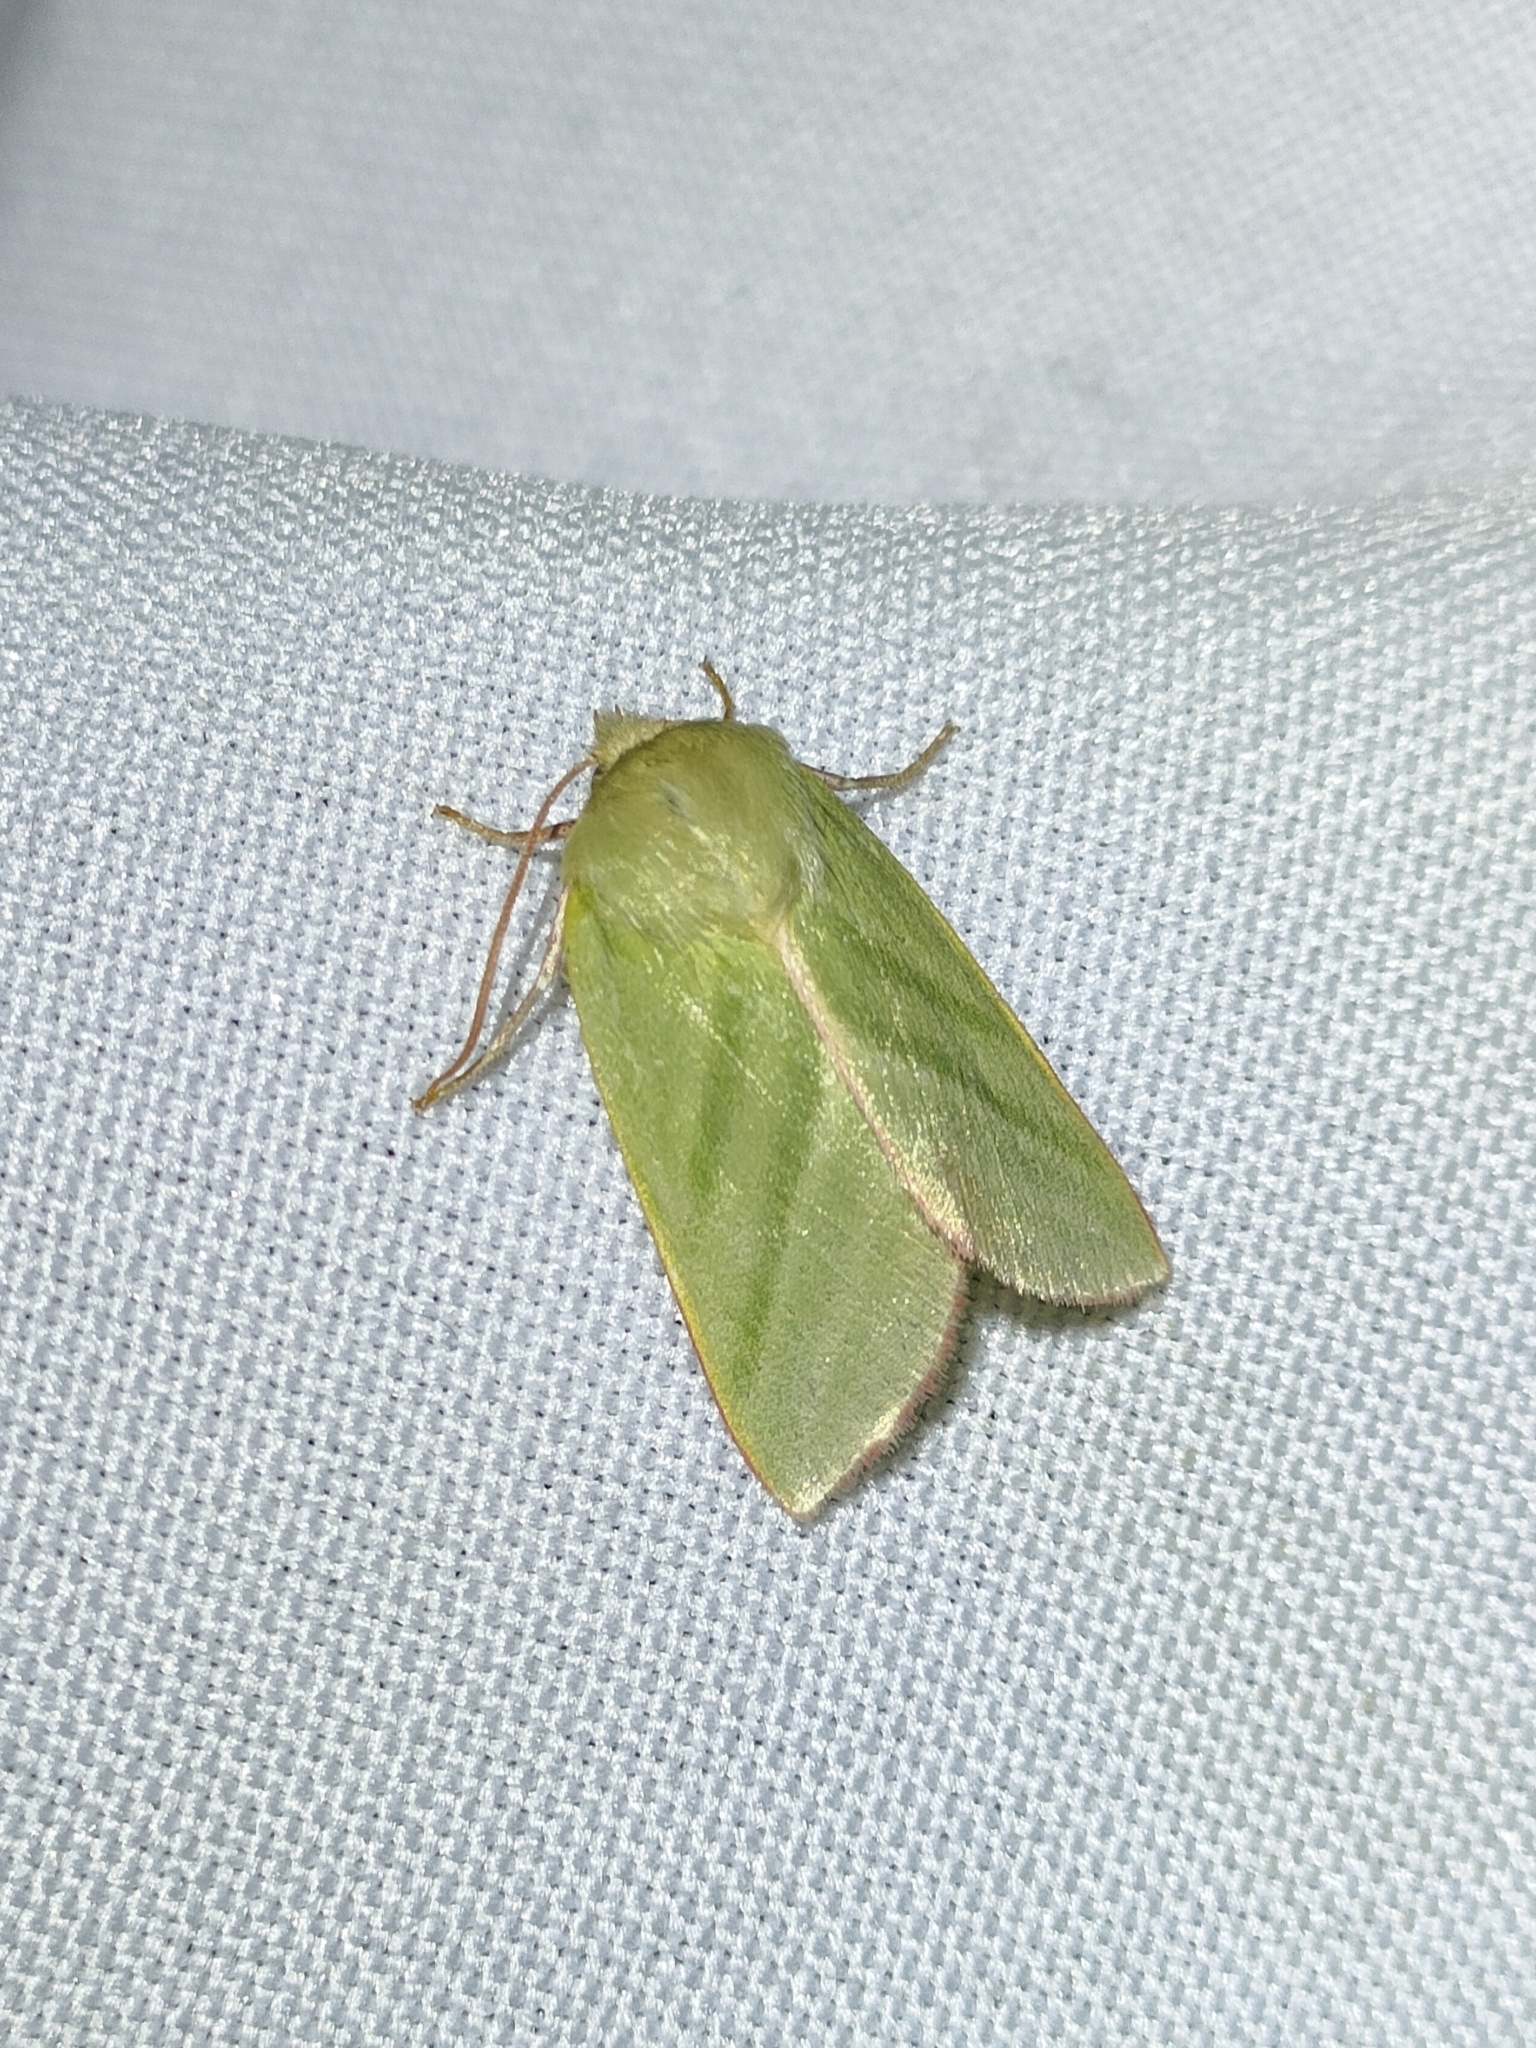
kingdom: Animalia
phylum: Arthropoda
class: Insecta
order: Lepidoptera
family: Nolidae
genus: Pseudoips
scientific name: Pseudoips prasinana
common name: Green silver-lines
